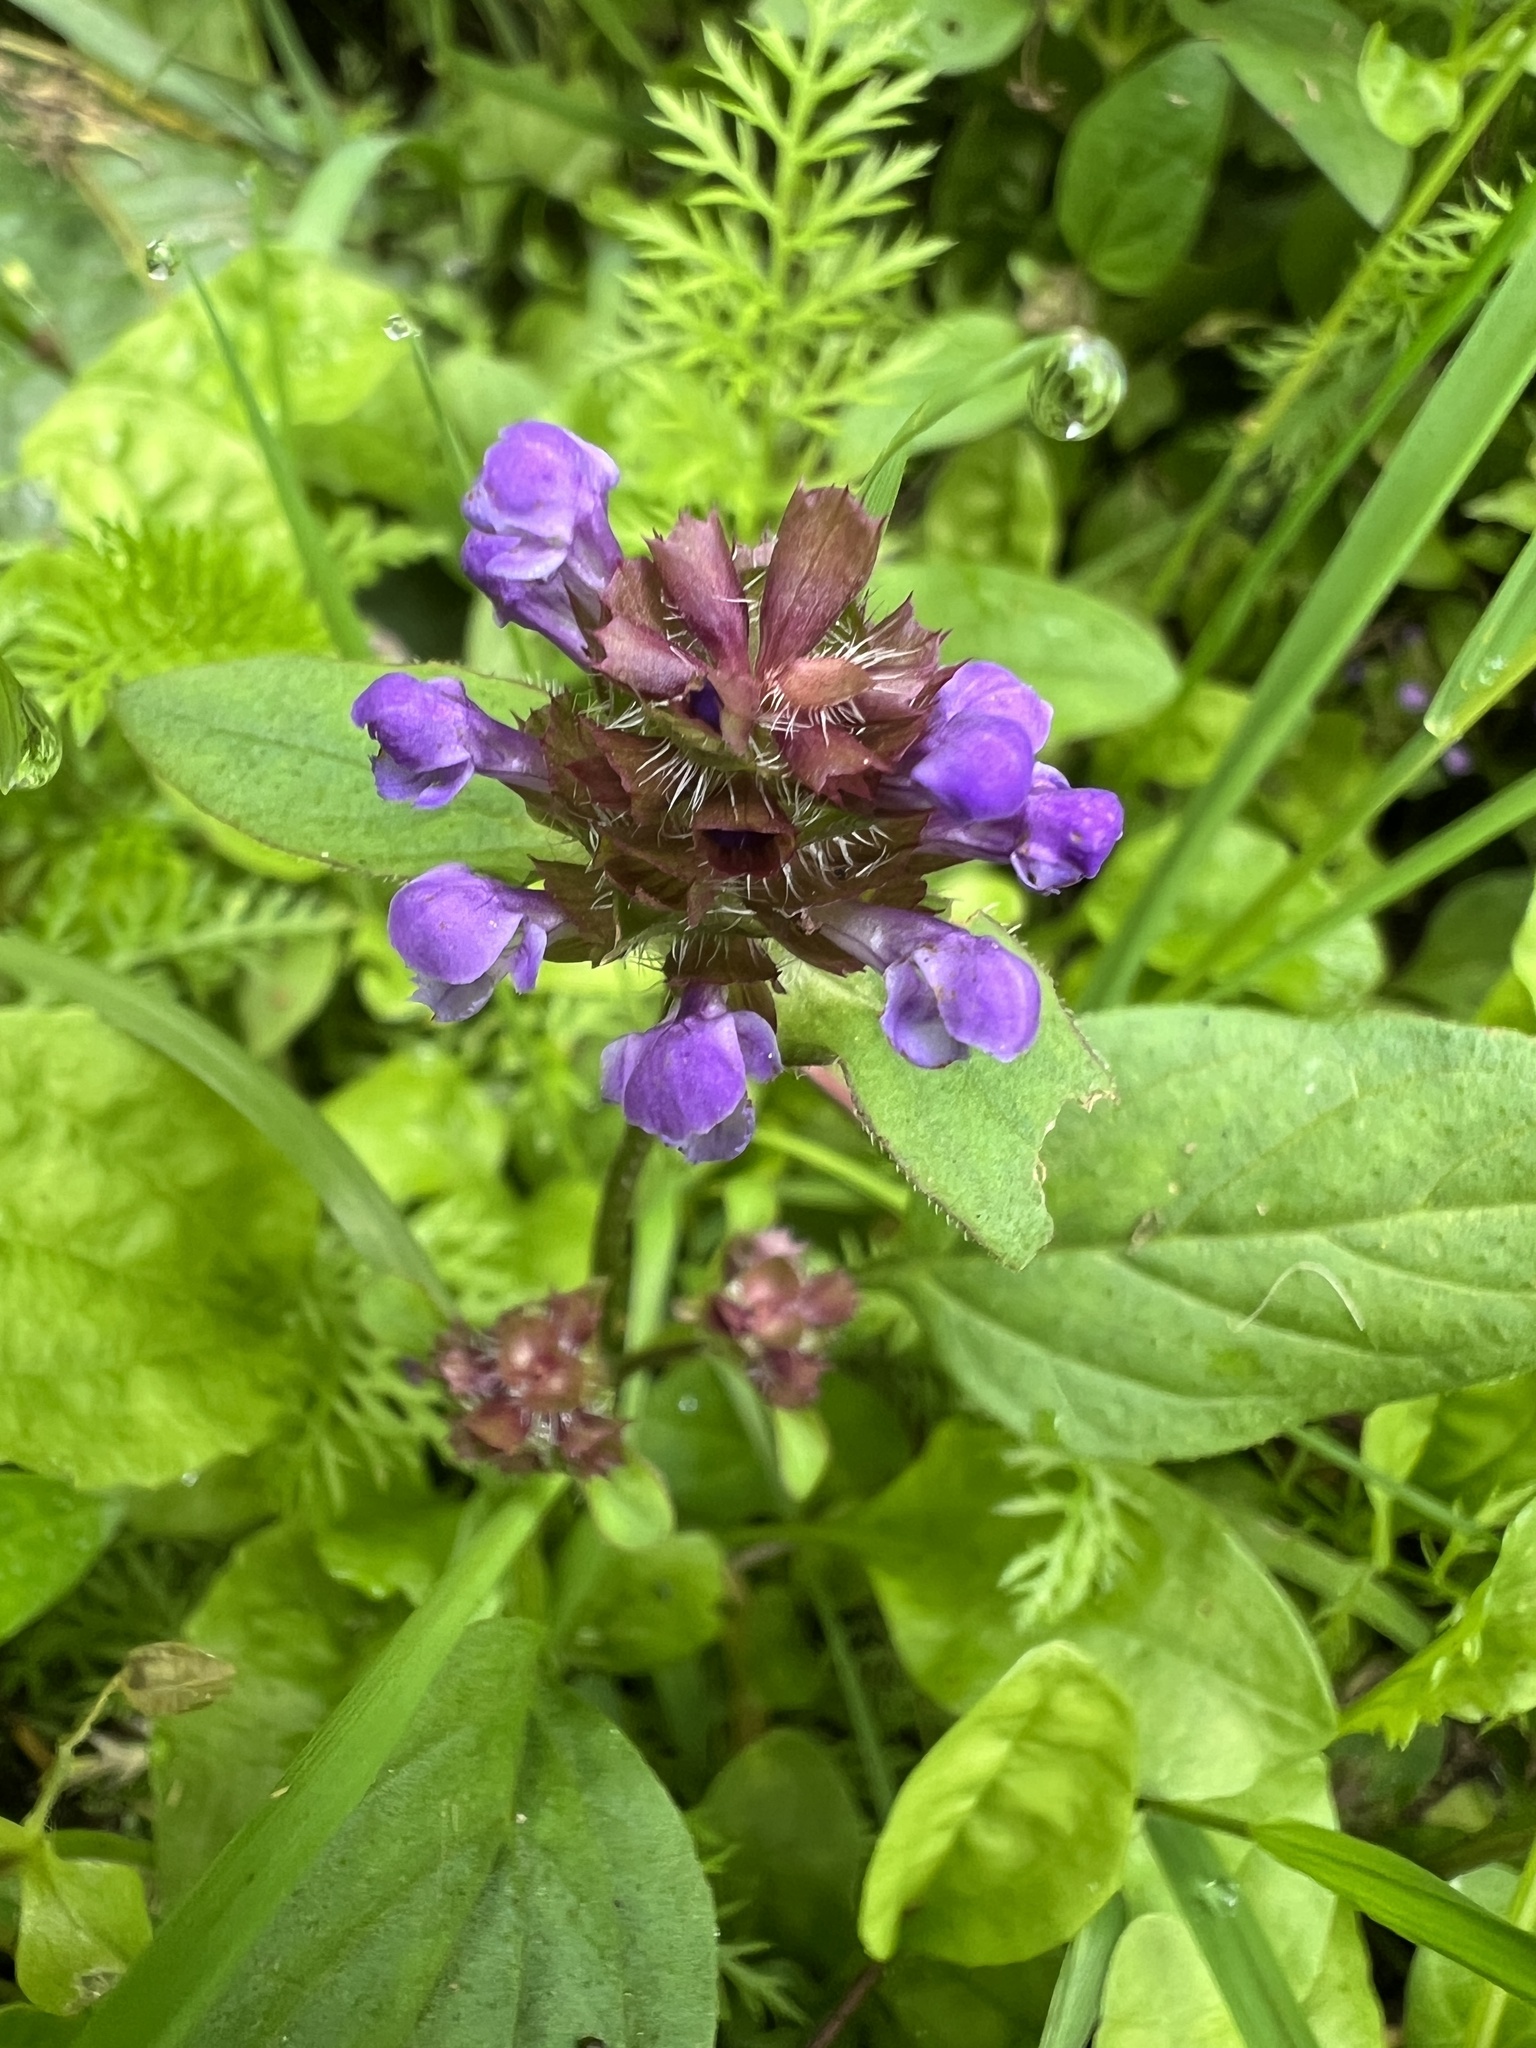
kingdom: Plantae
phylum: Tracheophyta
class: Magnoliopsida
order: Lamiales
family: Lamiaceae
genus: Prunella
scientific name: Prunella vulgaris
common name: Heal-all
